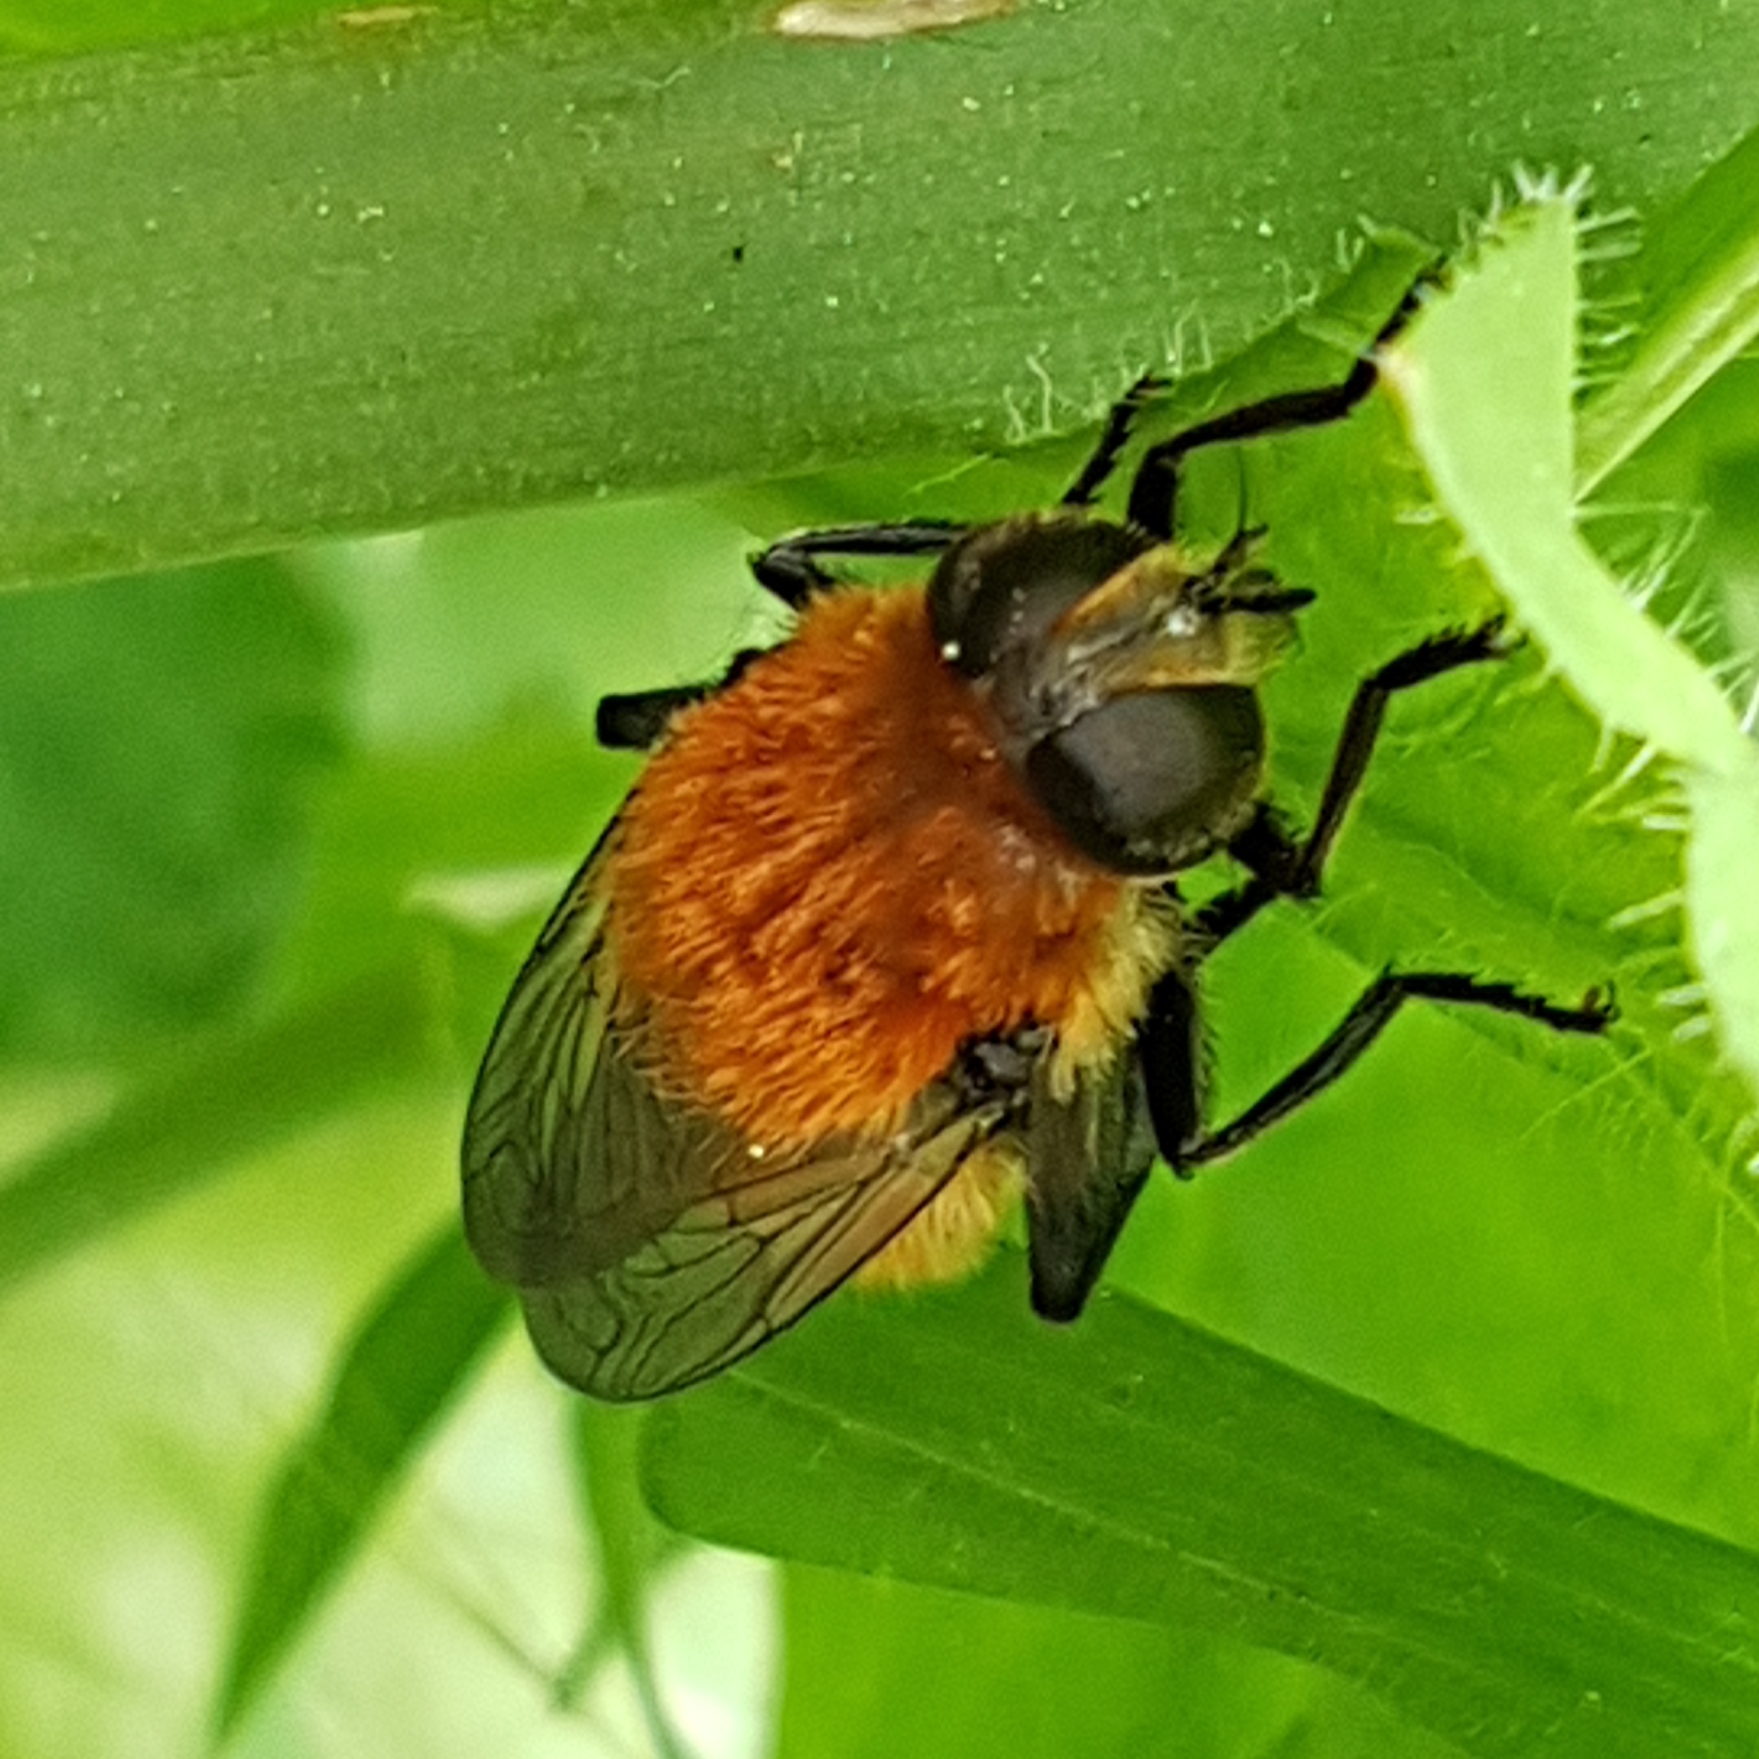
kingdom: Animalia
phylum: Arthropoda
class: Insecta
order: Diptera
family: Syrphidae
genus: Merodon
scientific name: Merodon equestris
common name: Greater bulb-fly
